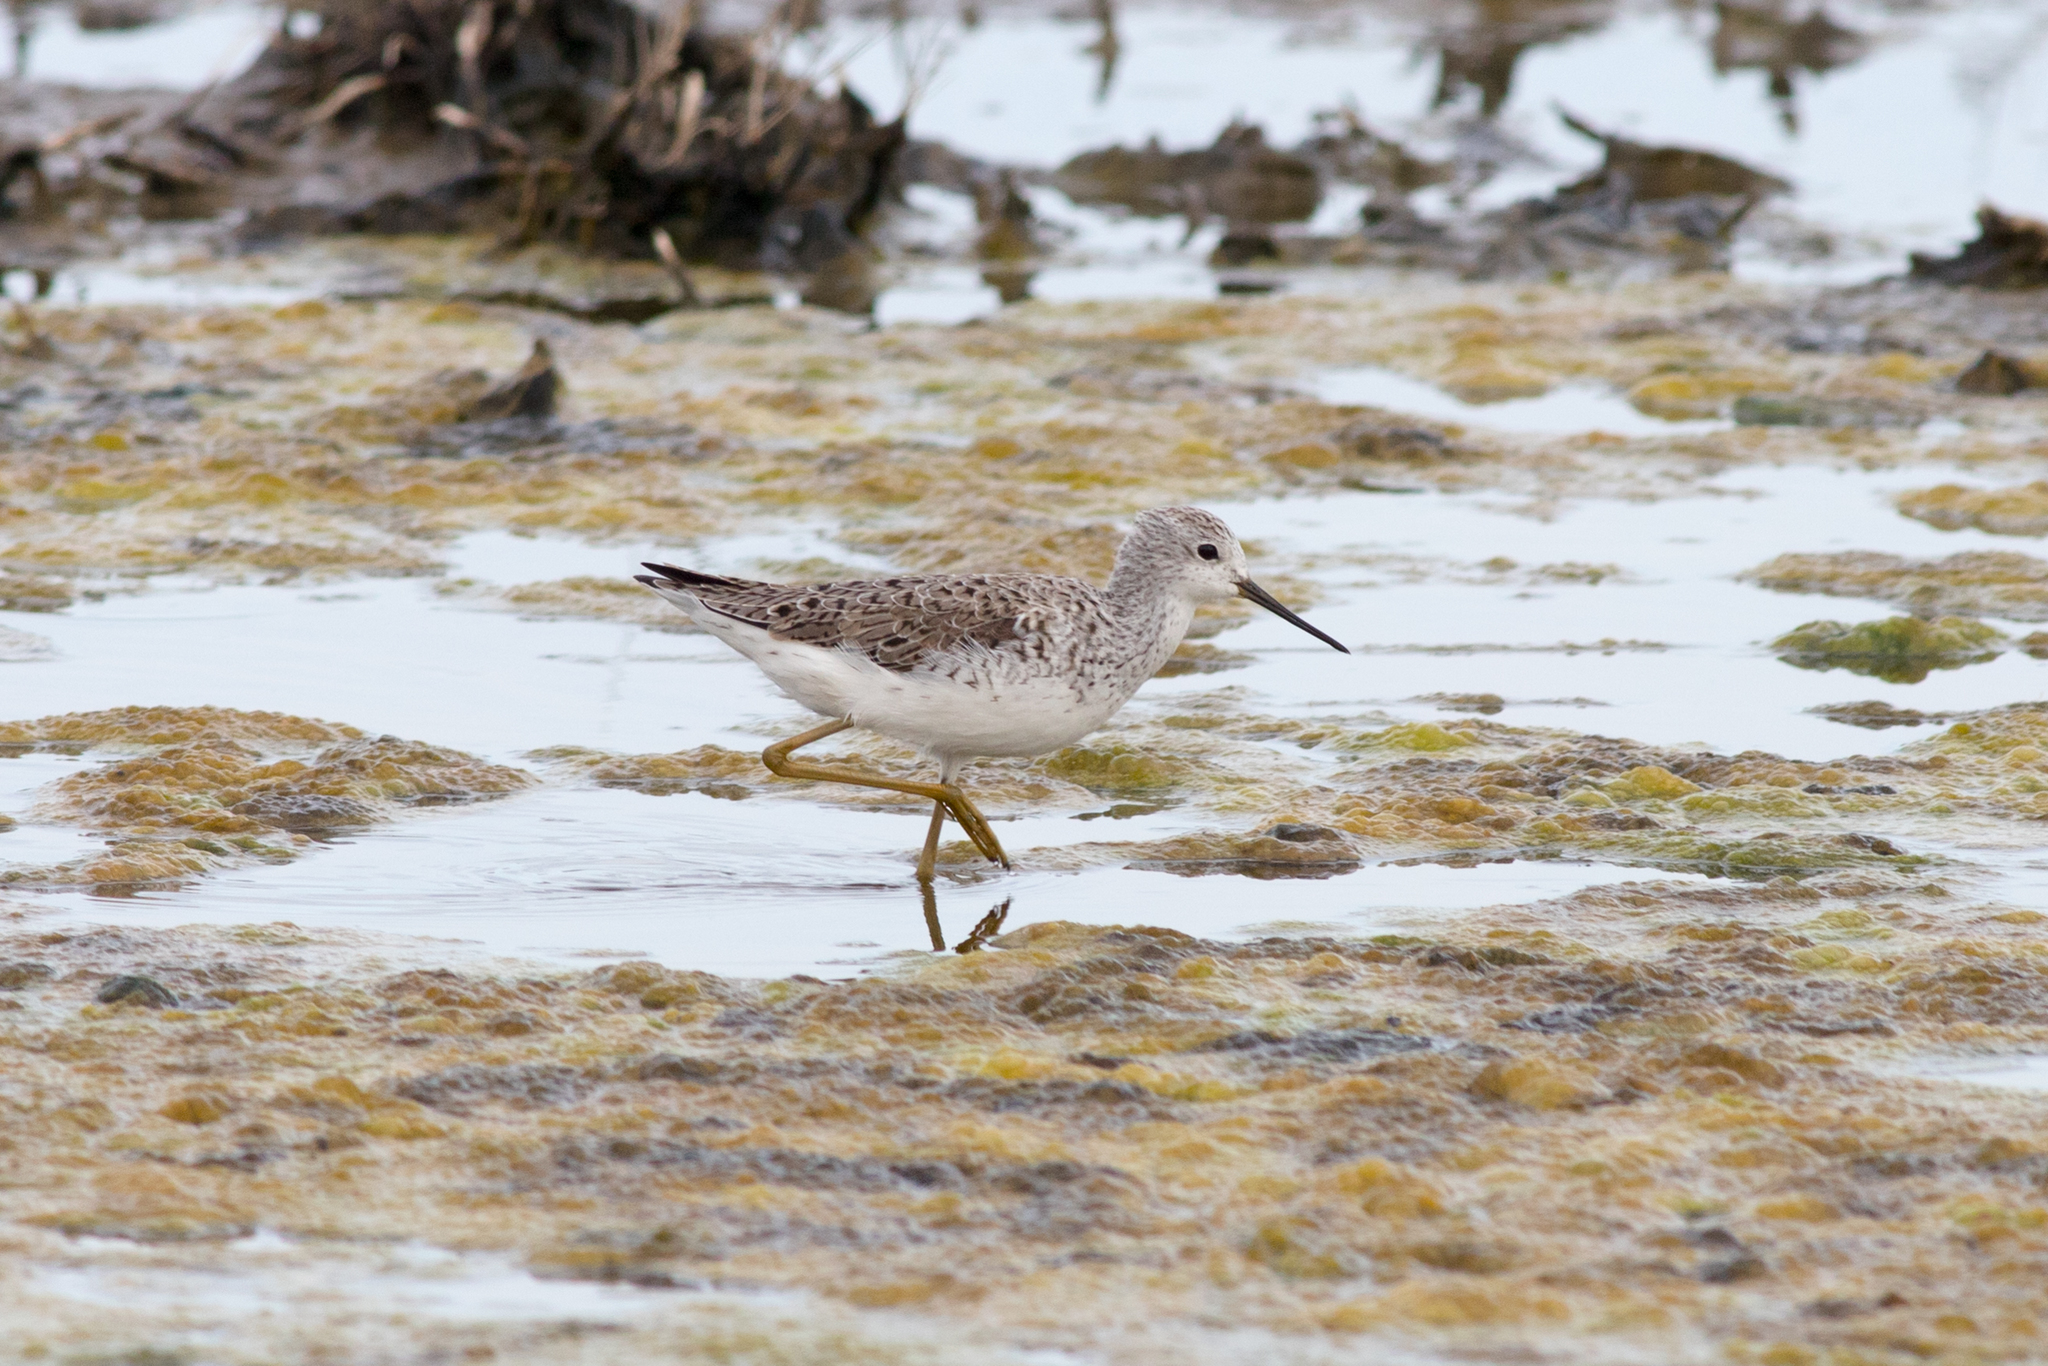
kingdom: Animalia
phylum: Chordata
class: Aves
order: Charadriiformes
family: Scolopacidae
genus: Tringa
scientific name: Tringa stagnatilis
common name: Marsh sandpiper
